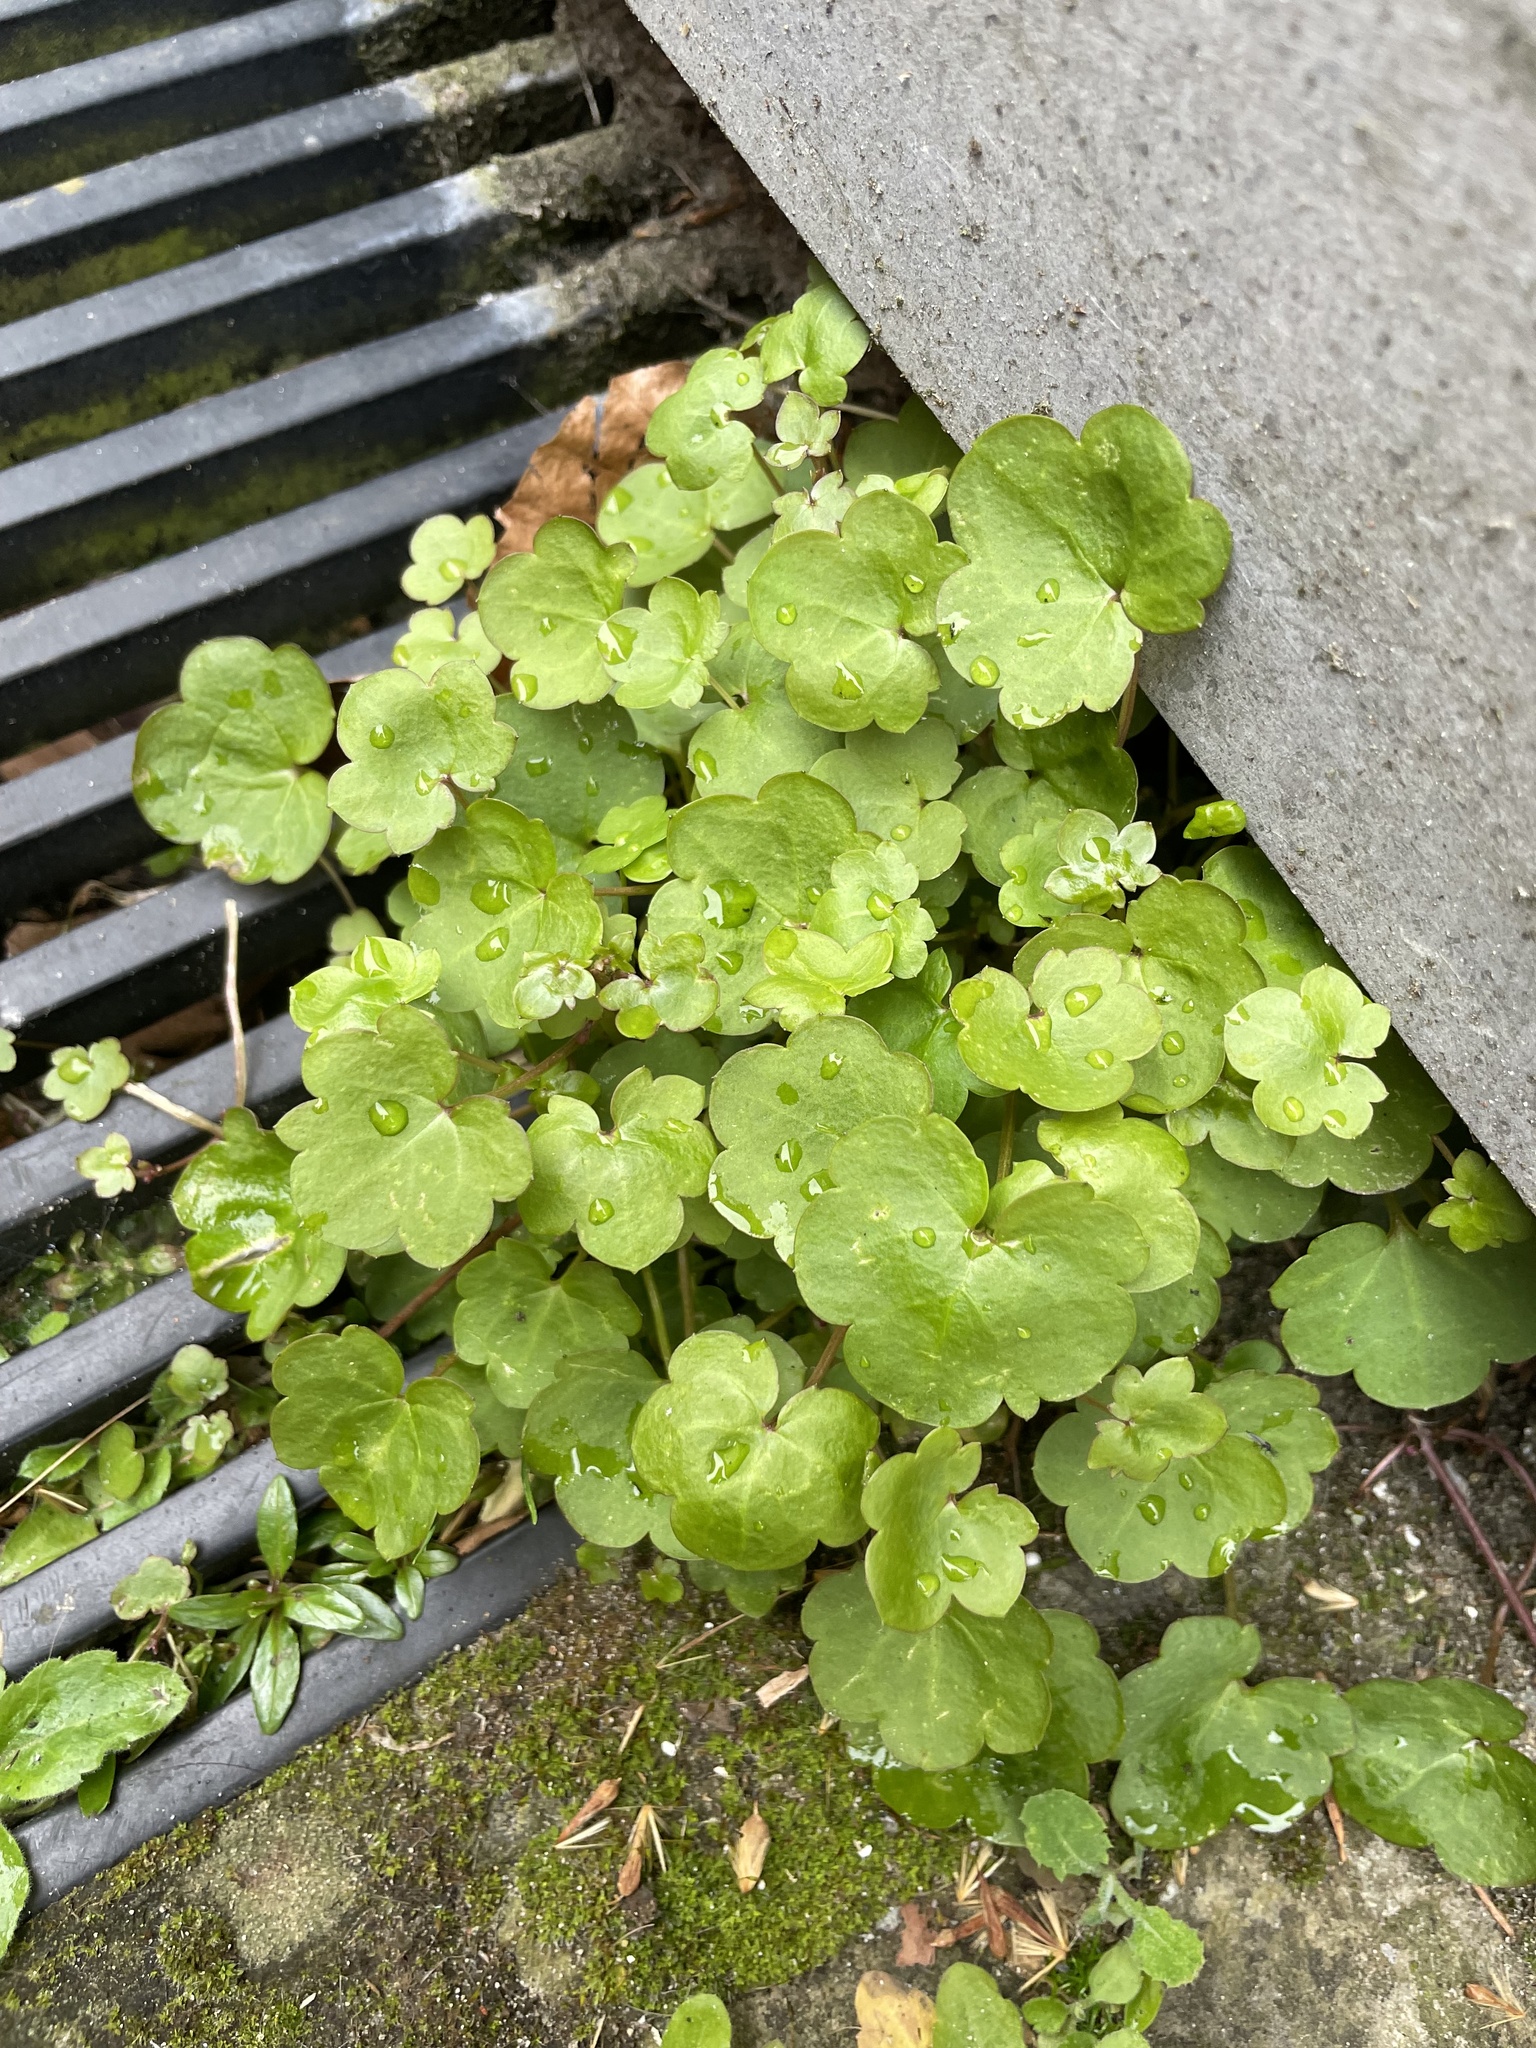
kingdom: Plantae
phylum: Tracheophyta
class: Magnoliopsida
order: Lamiales
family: Plantaginaceae
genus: Cymbalaria
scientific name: Cymbalaria muralis
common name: Ivy-leaved toadflax
